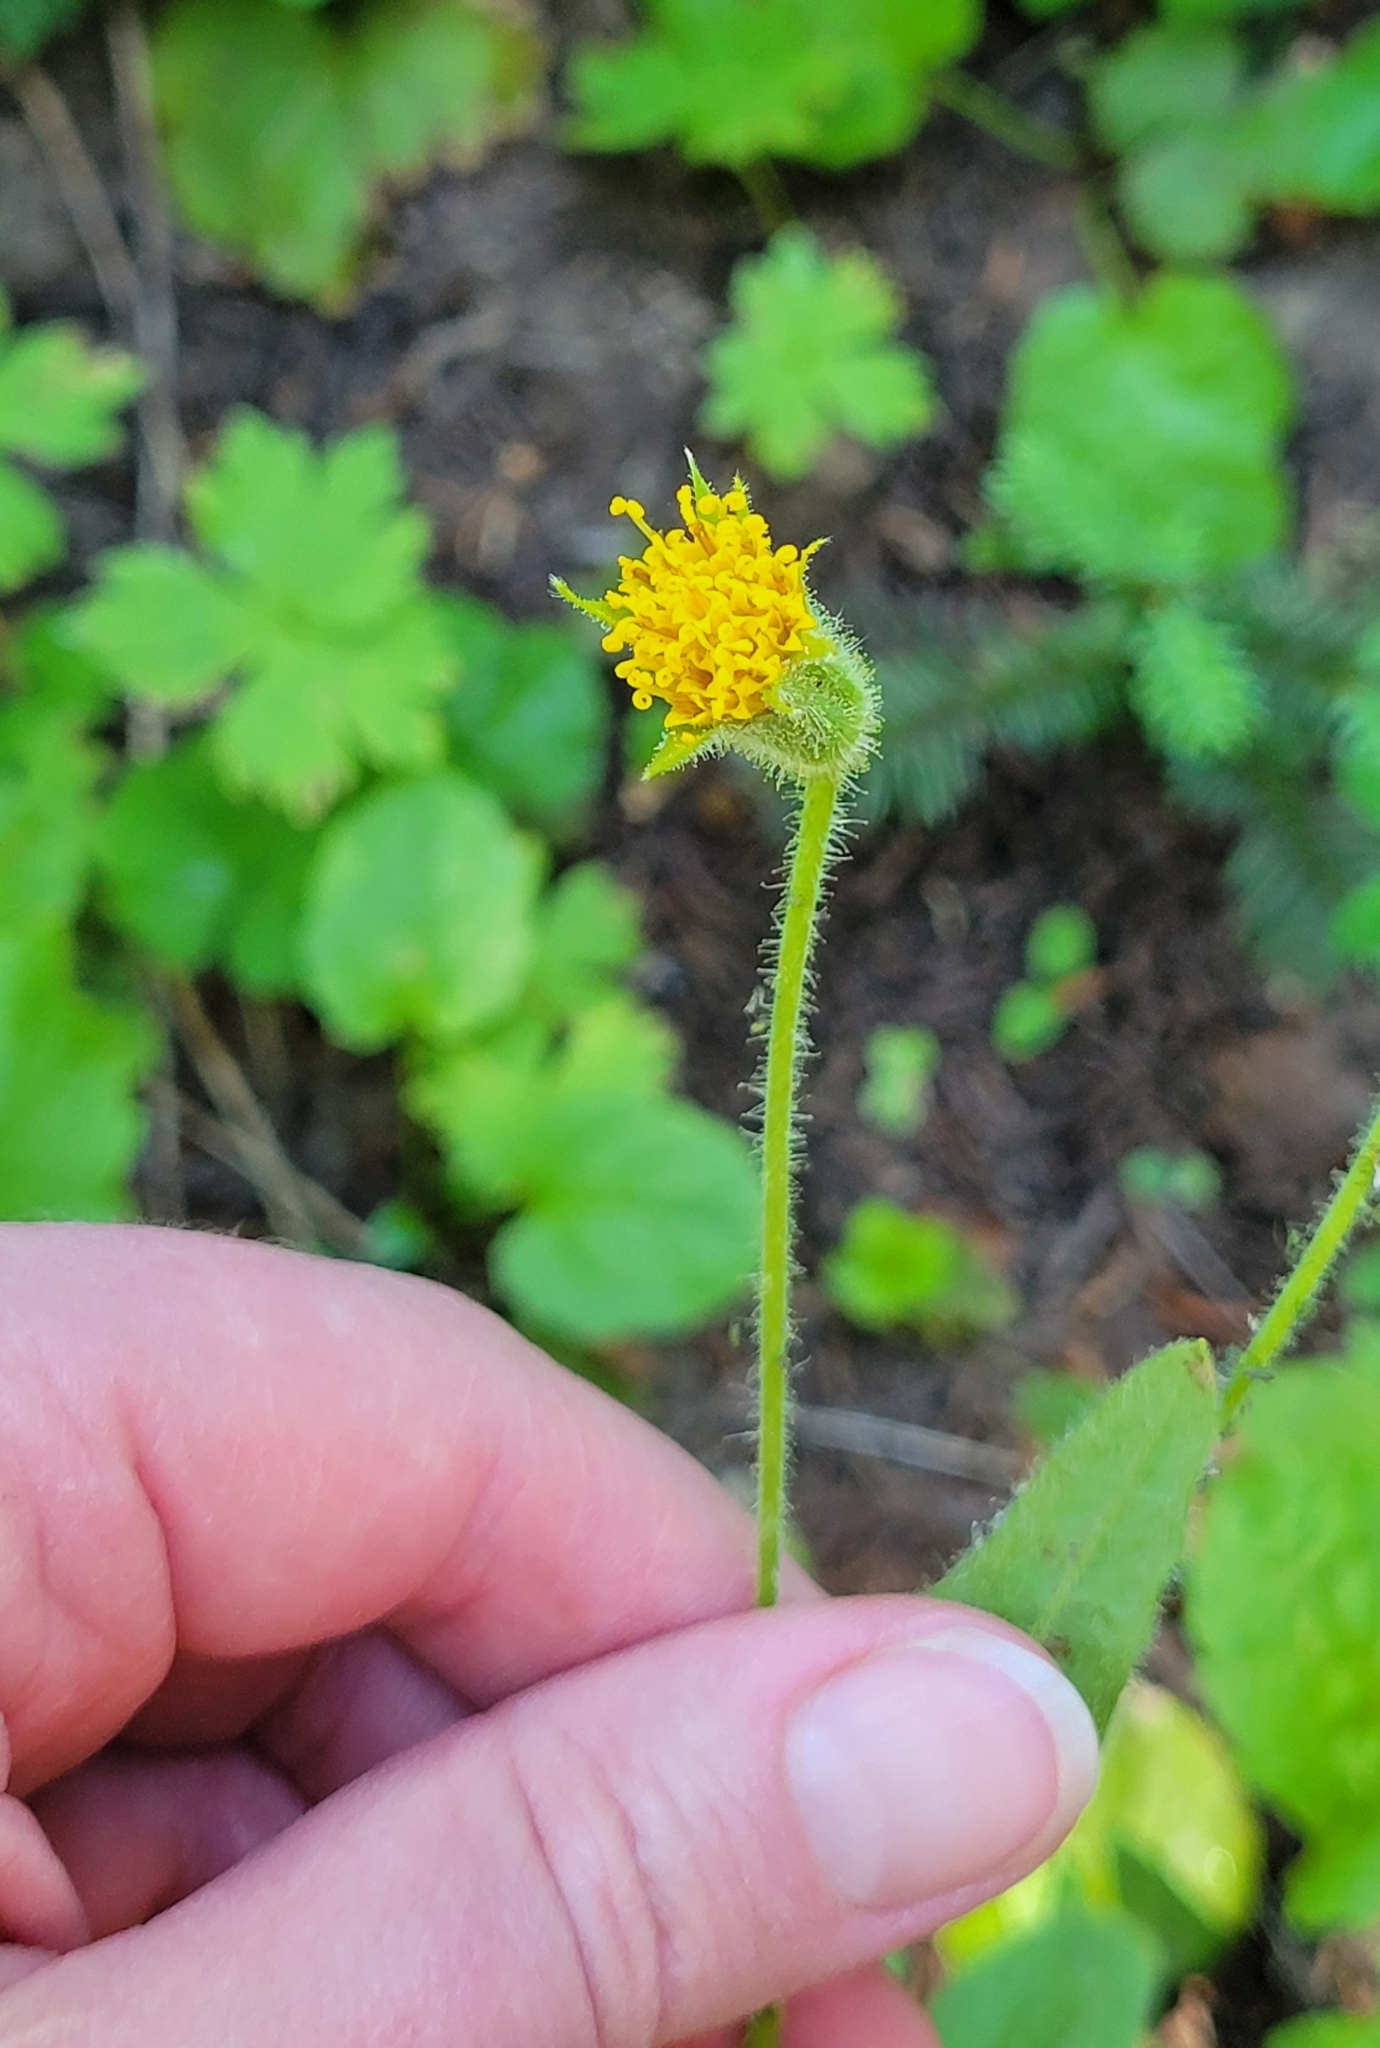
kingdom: Plantae
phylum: Tracheophyta
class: Magnoliopsida
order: Asterales
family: Asteraceae
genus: Arnica
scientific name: Arnica parryi
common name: Parry's arnica
